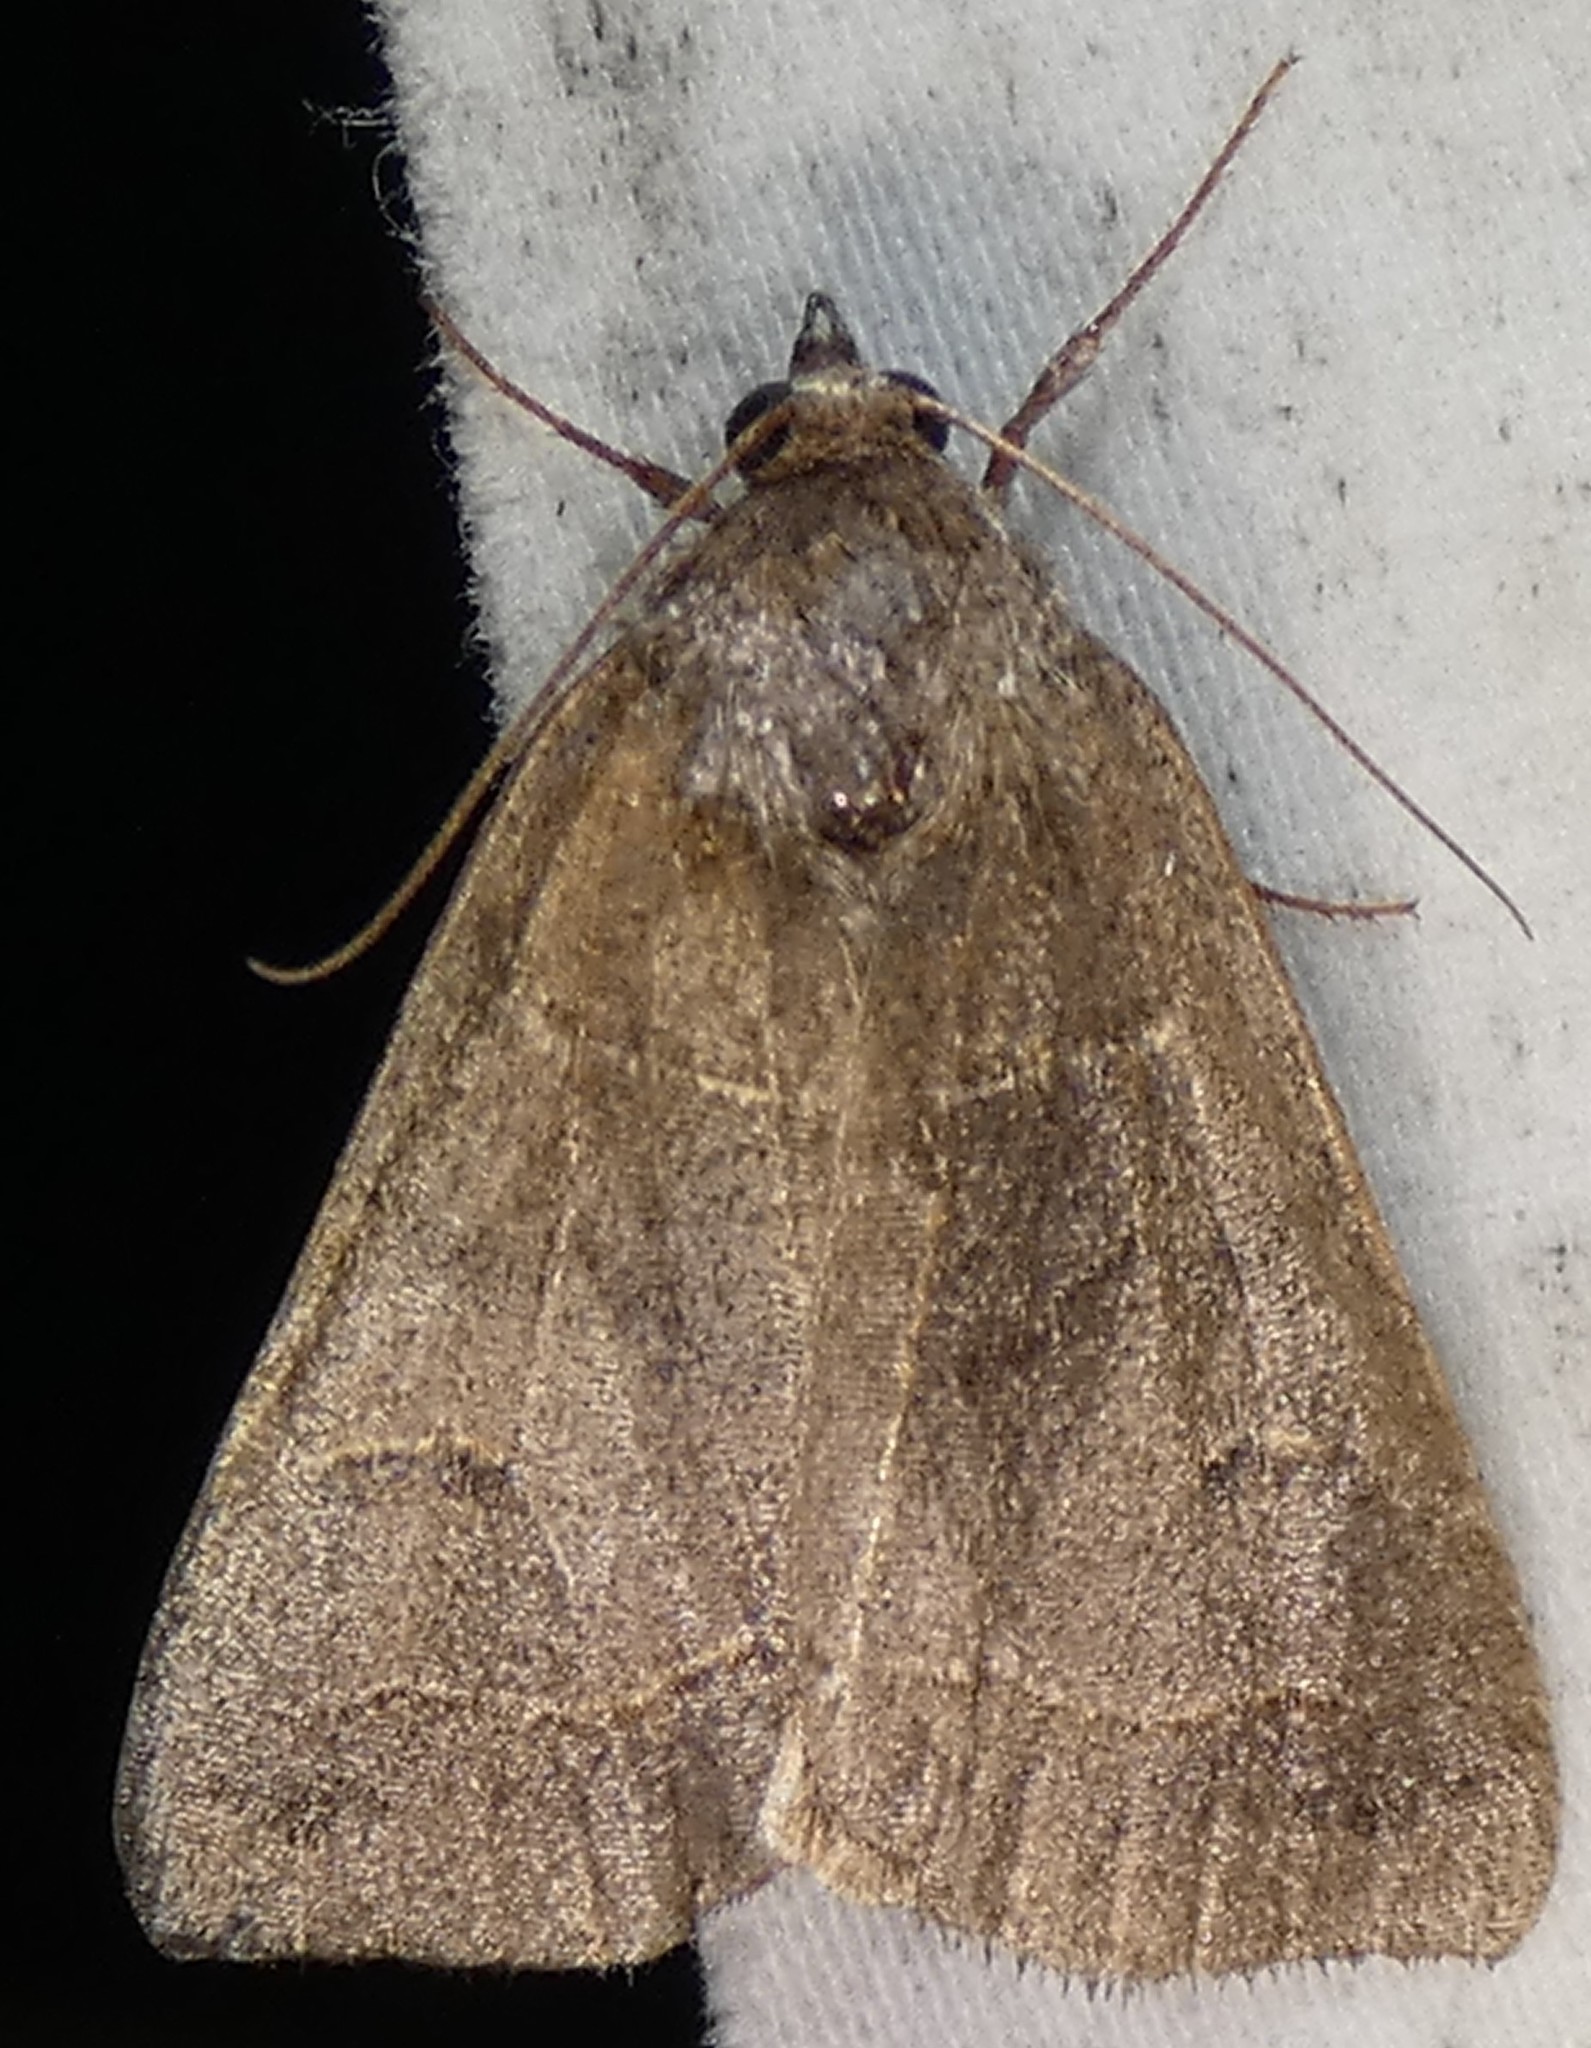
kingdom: Animalia
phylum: Arthropoda
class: Insecta
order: Lepidoptera
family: Erebidae
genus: Phoberia
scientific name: Phoberia atomaris
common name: Common oak moth
